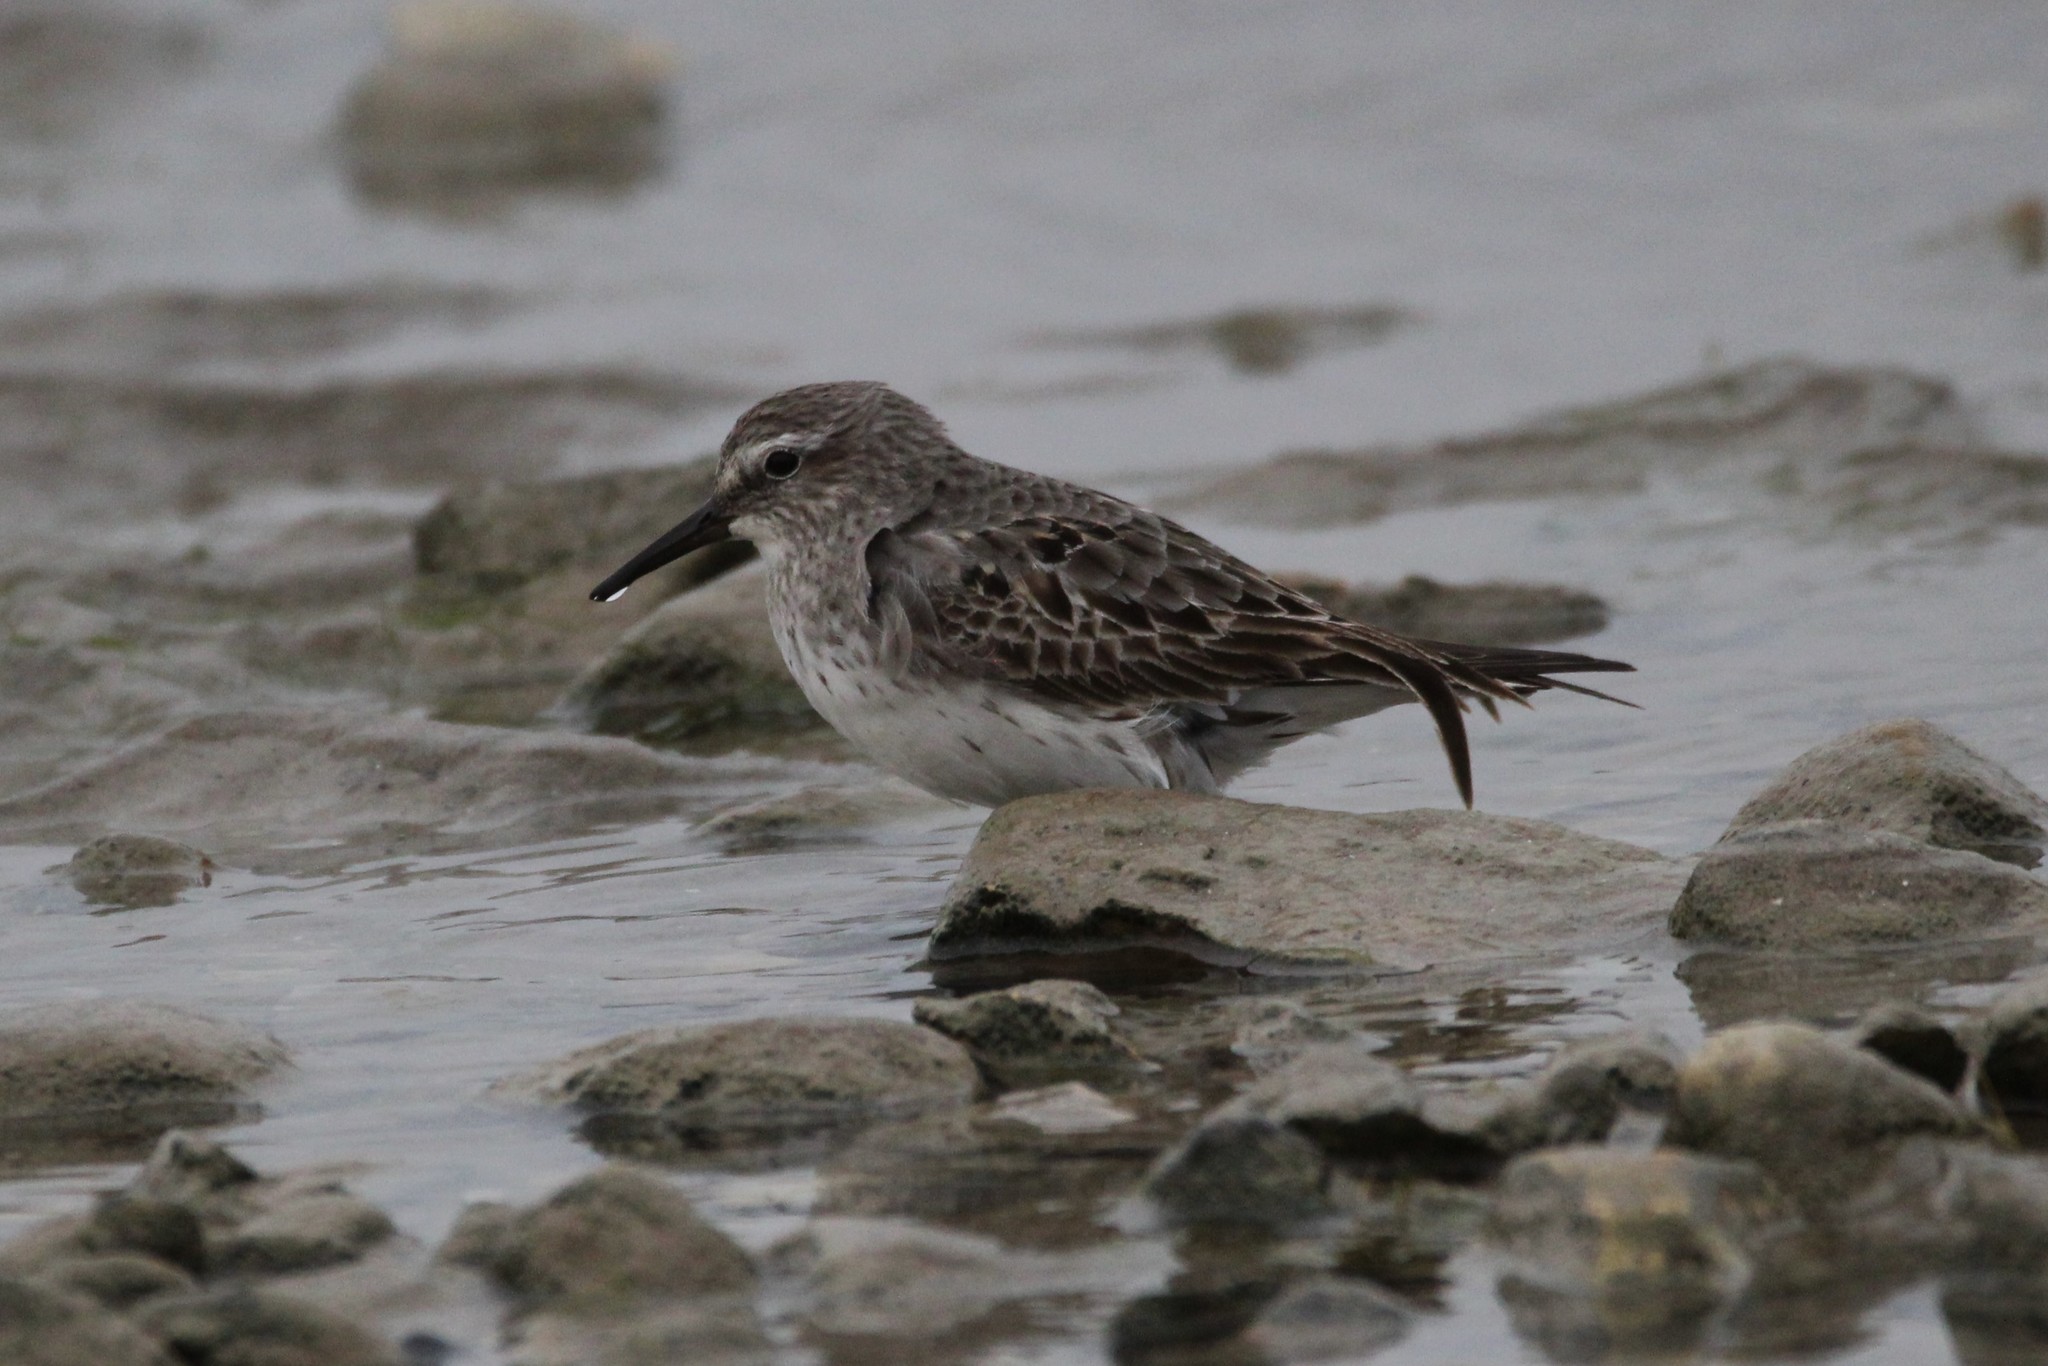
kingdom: Animalia
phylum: Chordata
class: Aves
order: Charadriiformes
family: Scolopacidae
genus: Calidris
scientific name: Calidris fuscicollis
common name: White-rumped sandpiper
